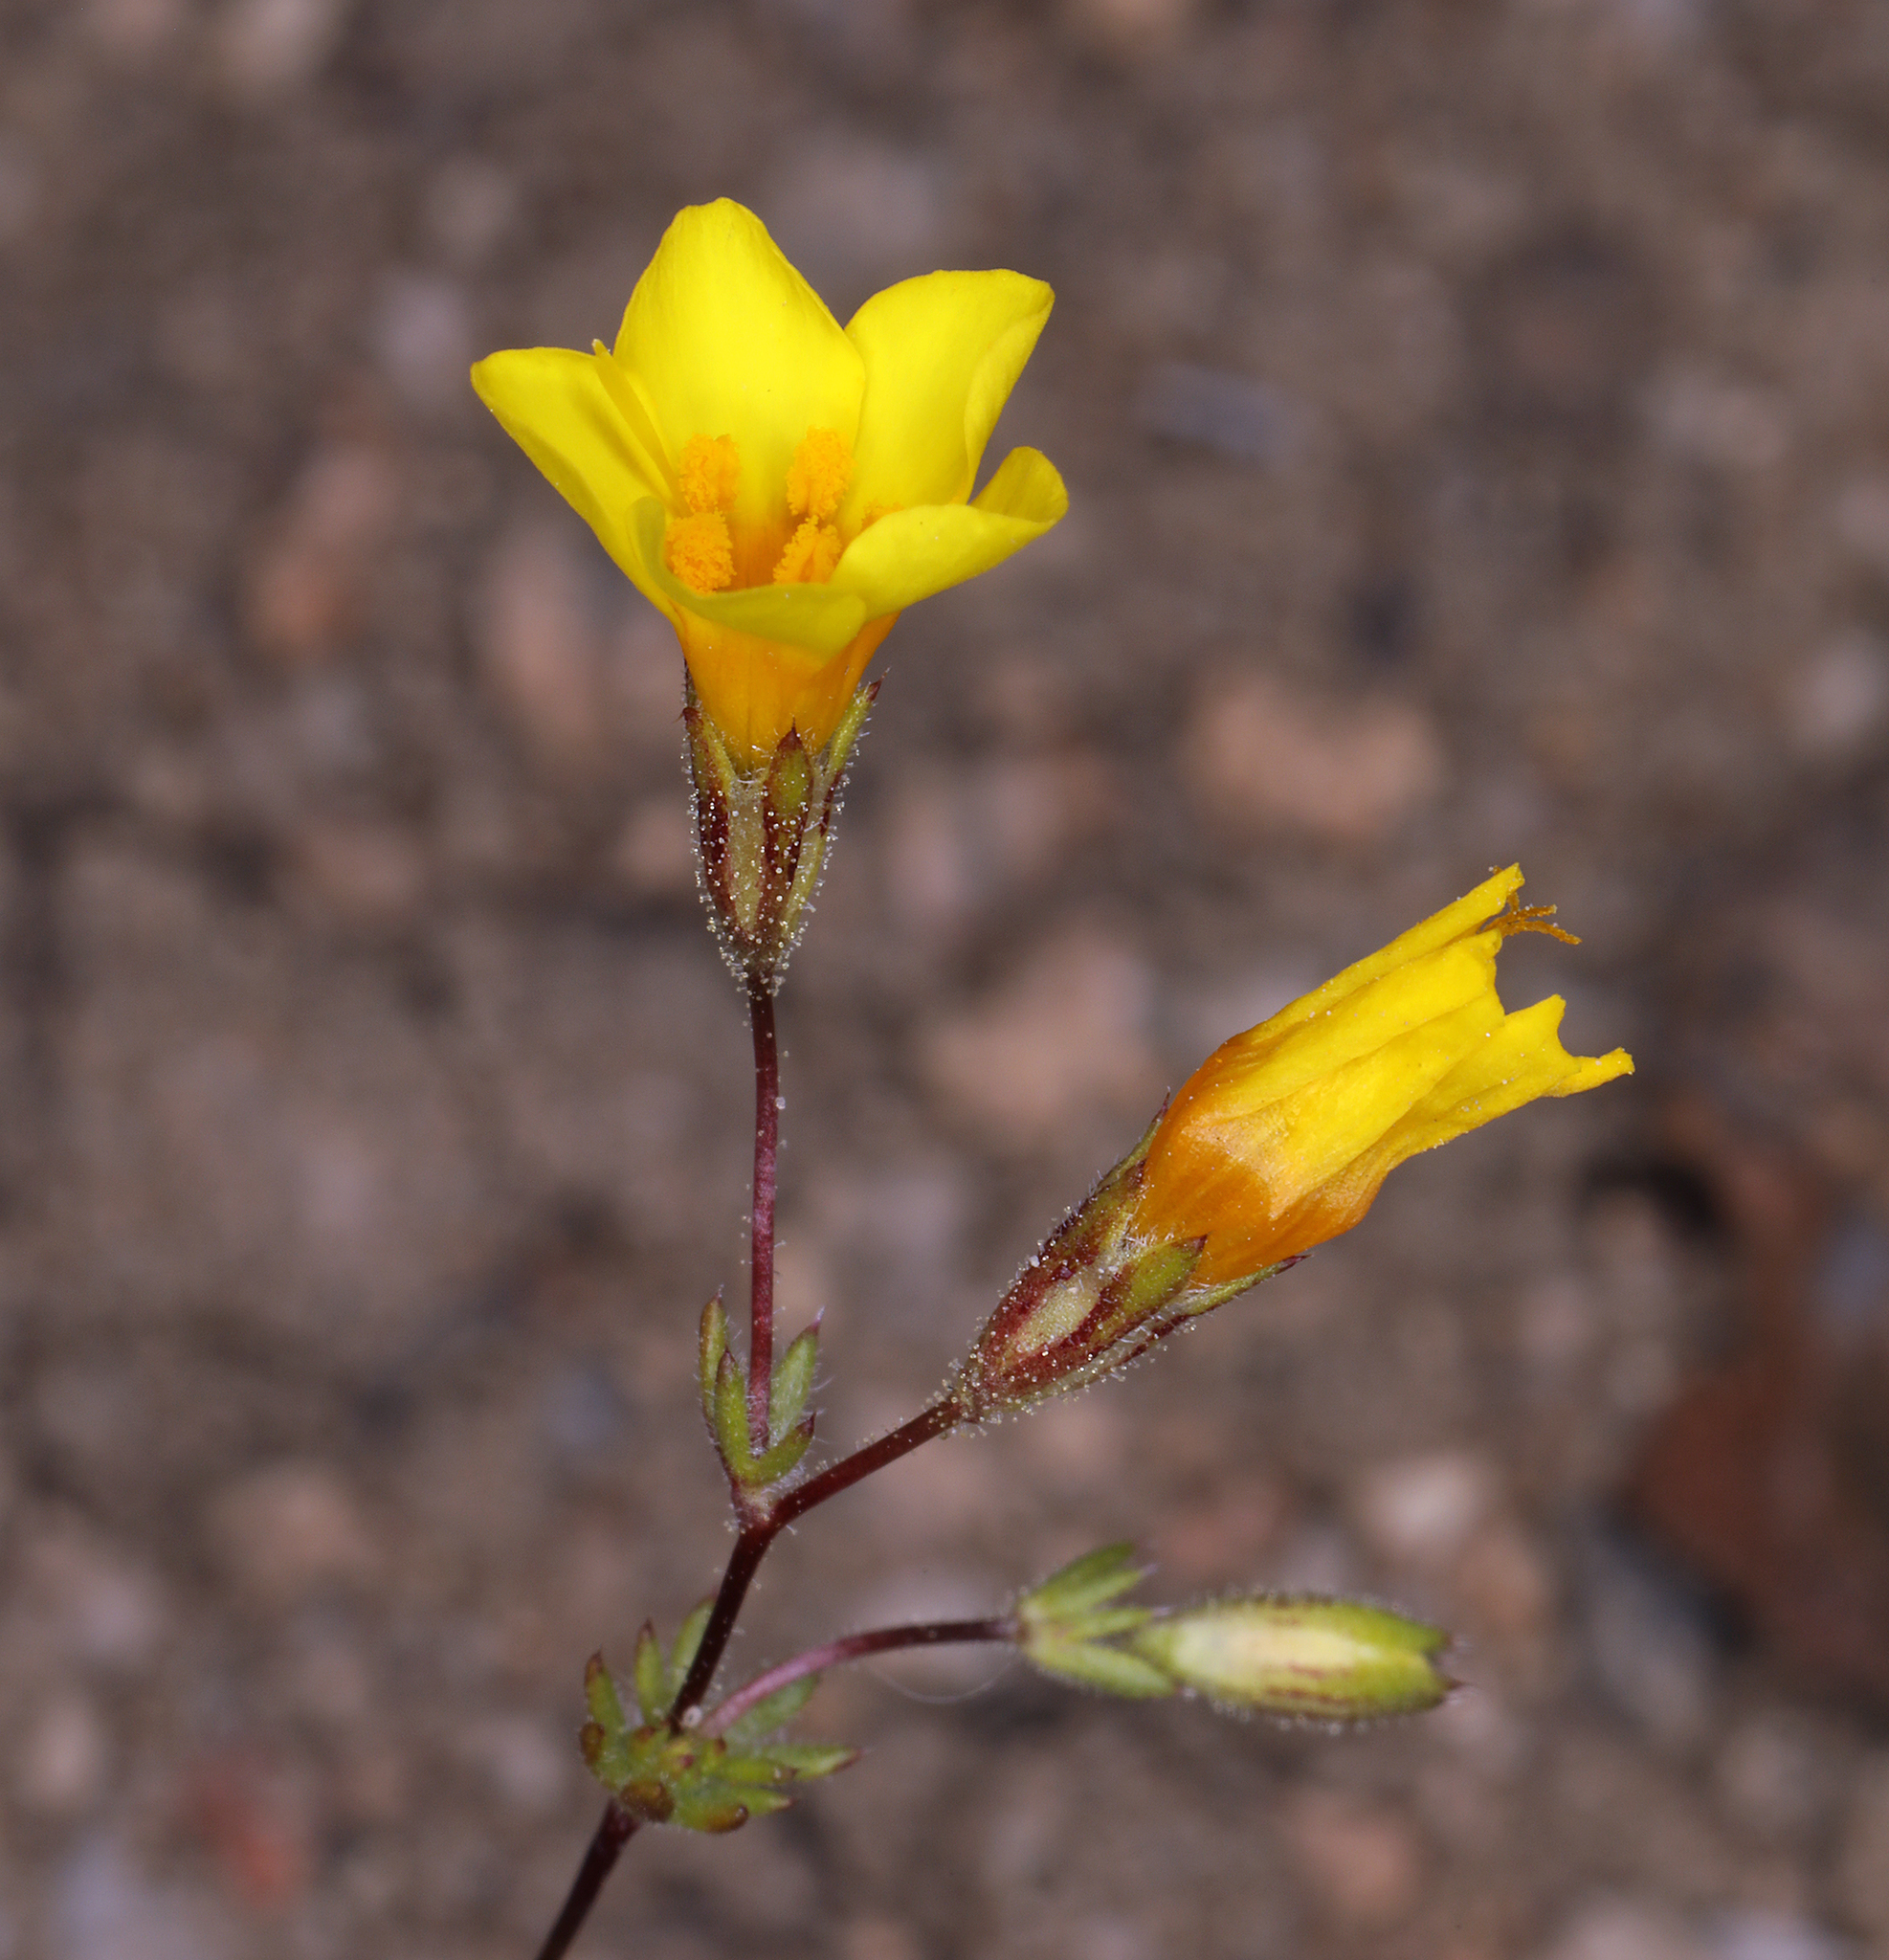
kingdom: Plantae
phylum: Tracheophyta
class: Magnoliopsida
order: Ericales
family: Polemoniaceae
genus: Leptosiphon
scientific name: Leptosiphon chrysanthus
